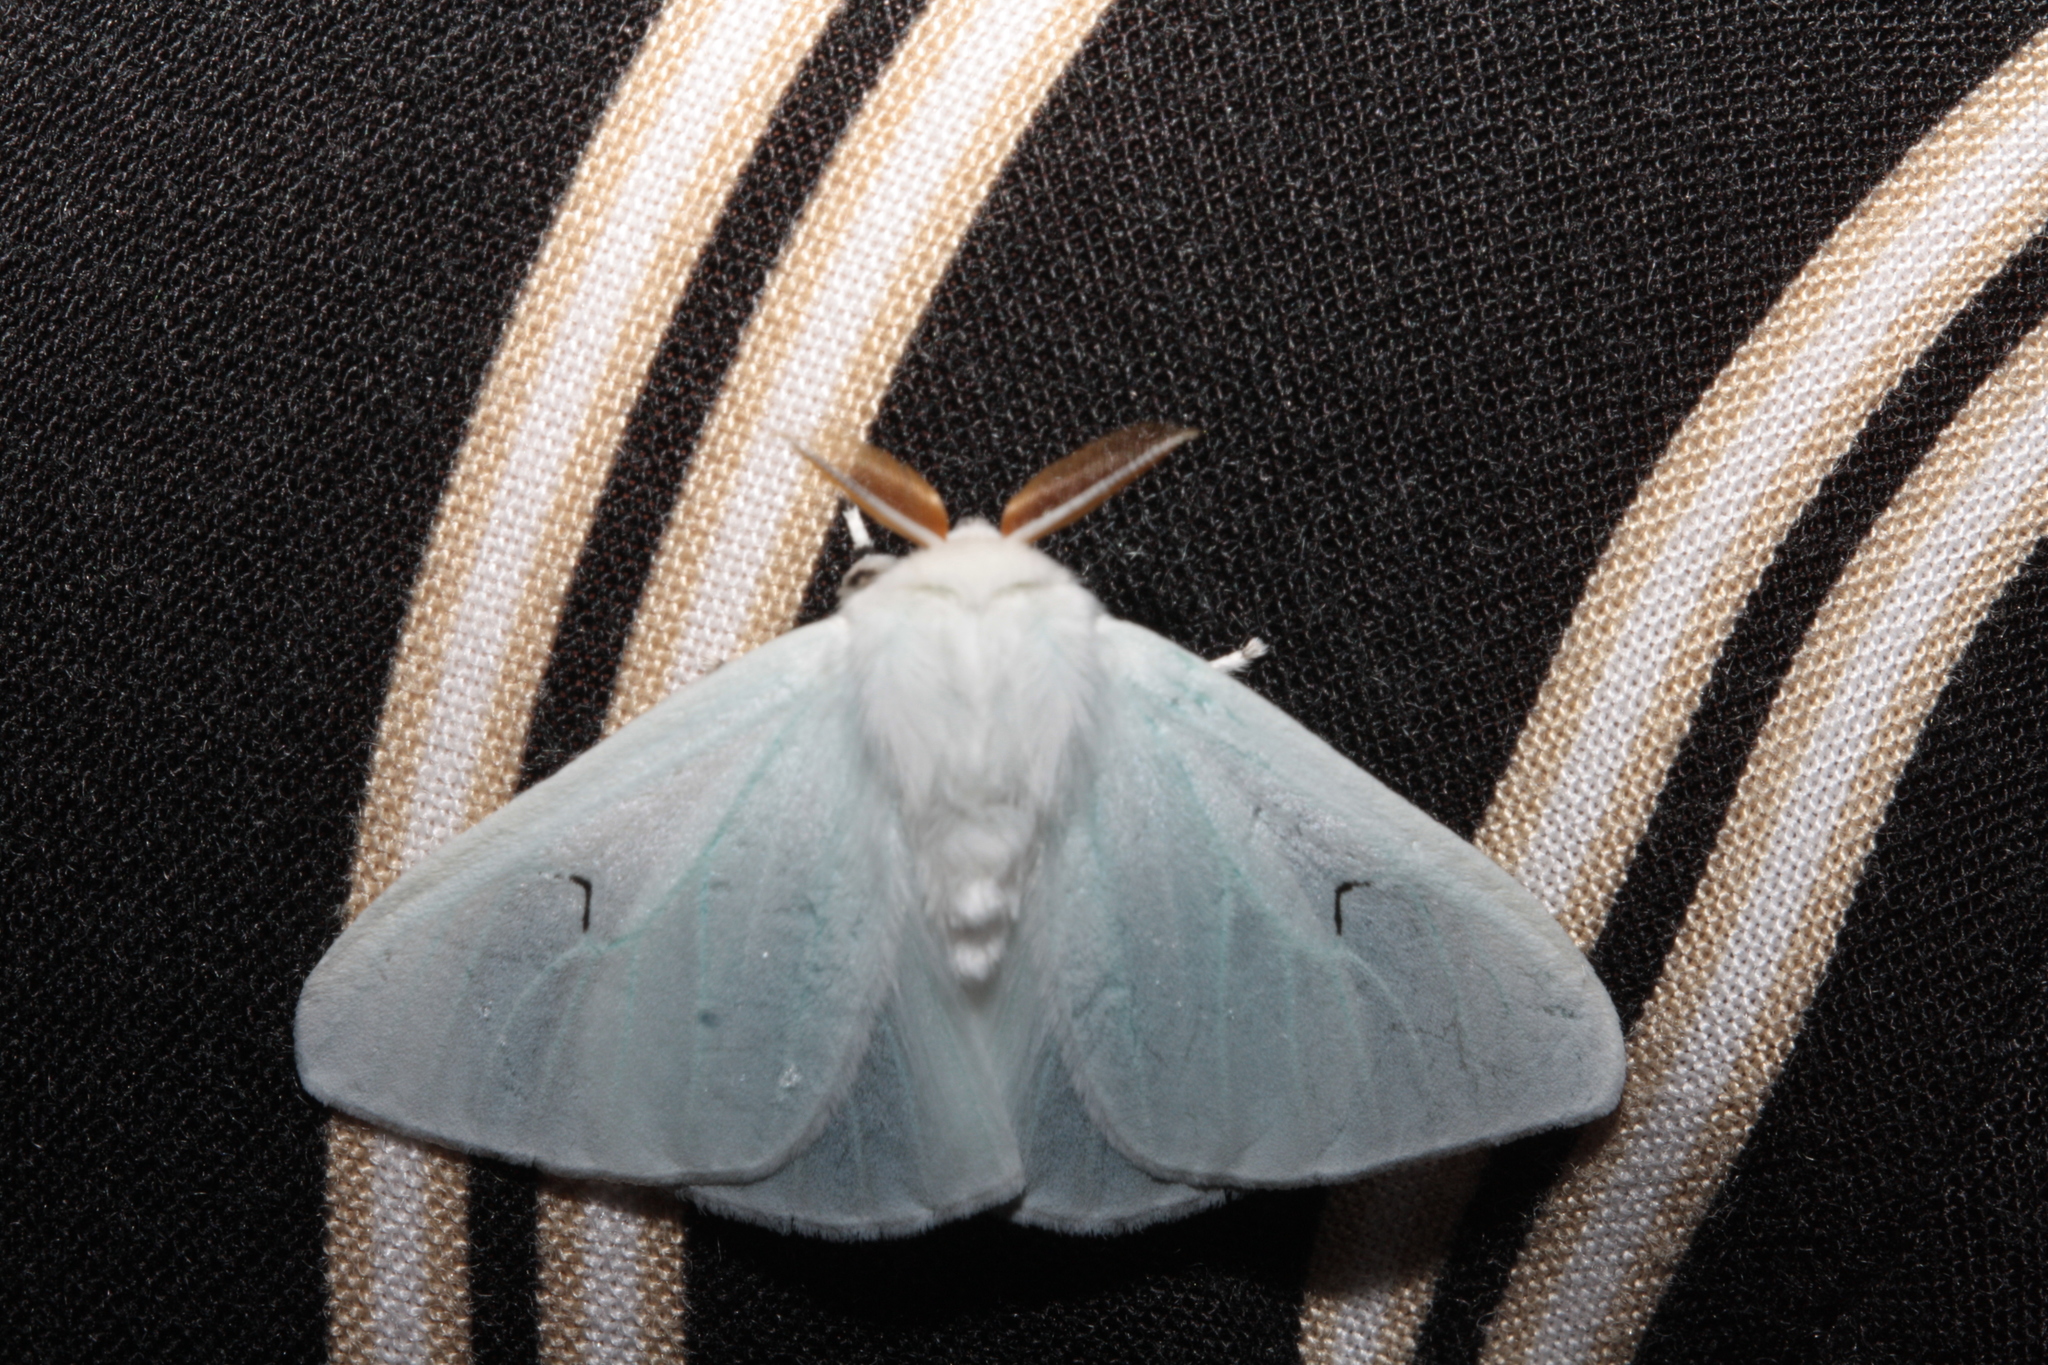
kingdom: Animalia
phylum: Arthropoda
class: Insecta
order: Lepidoptera
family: Erebidae
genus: Arctornis
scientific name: Arctornis l-nigrum
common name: Black v moth
